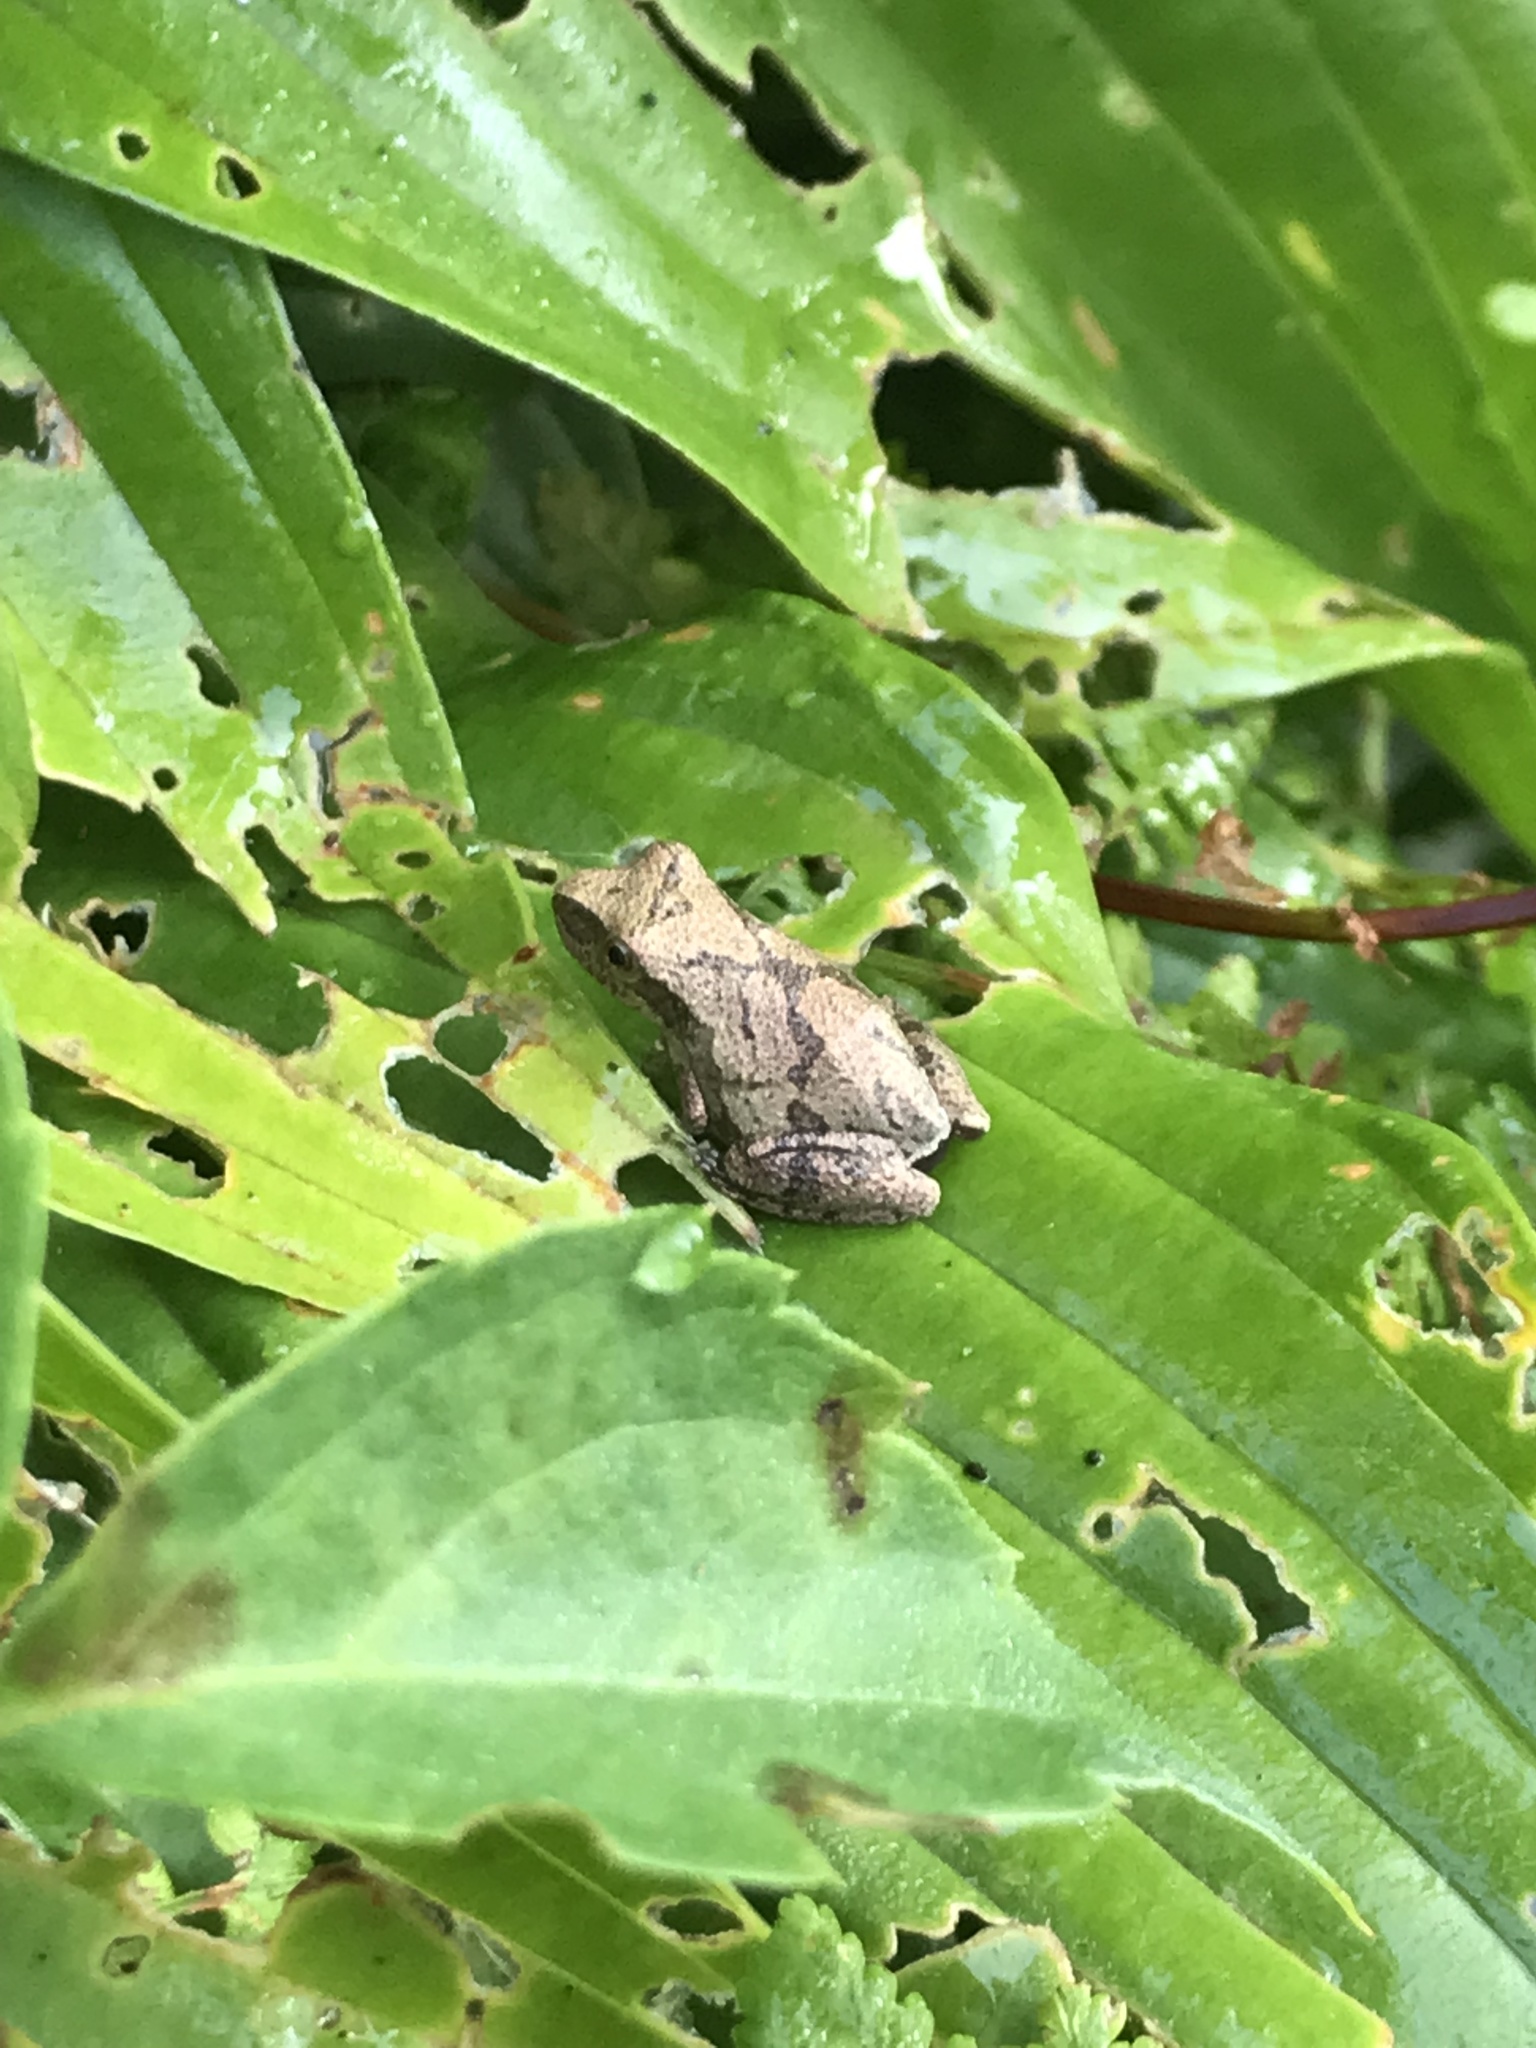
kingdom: Animalia
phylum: Chordata
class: Amphibia
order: Anura
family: Hylidae
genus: Pseudacris
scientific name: Pseudacris crucifer
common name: Spring peeper
